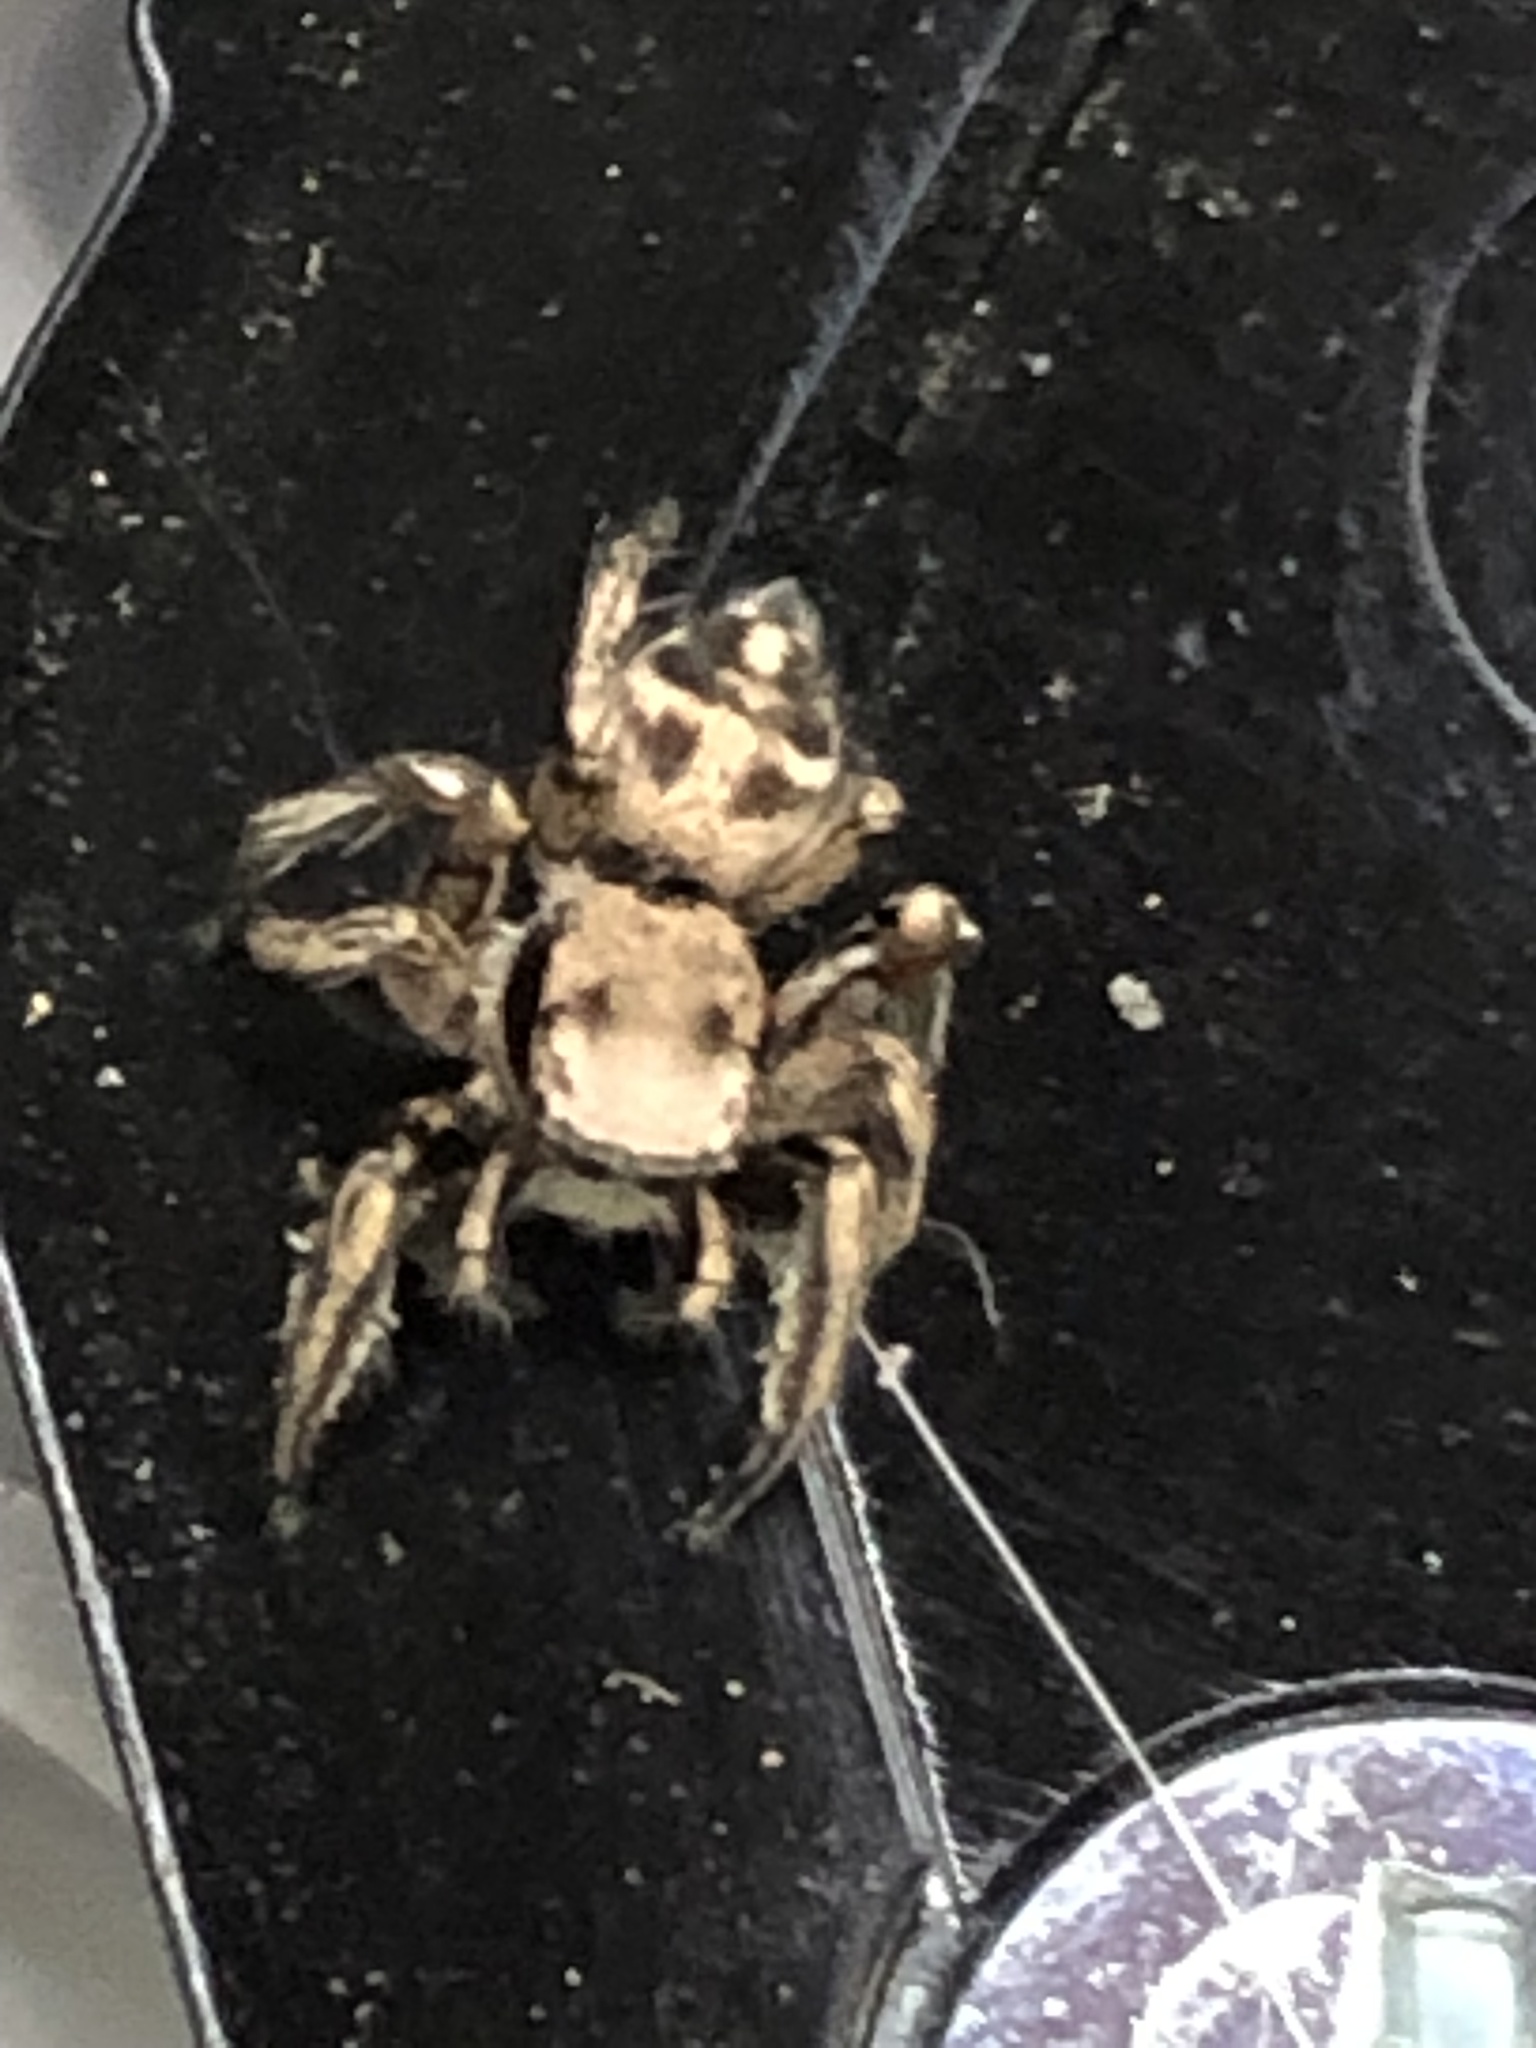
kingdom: Animalia
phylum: Arthropoda
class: Arachnida
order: Araneae
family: Salticidae
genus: Habronattus
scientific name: Habronattus klauseri
